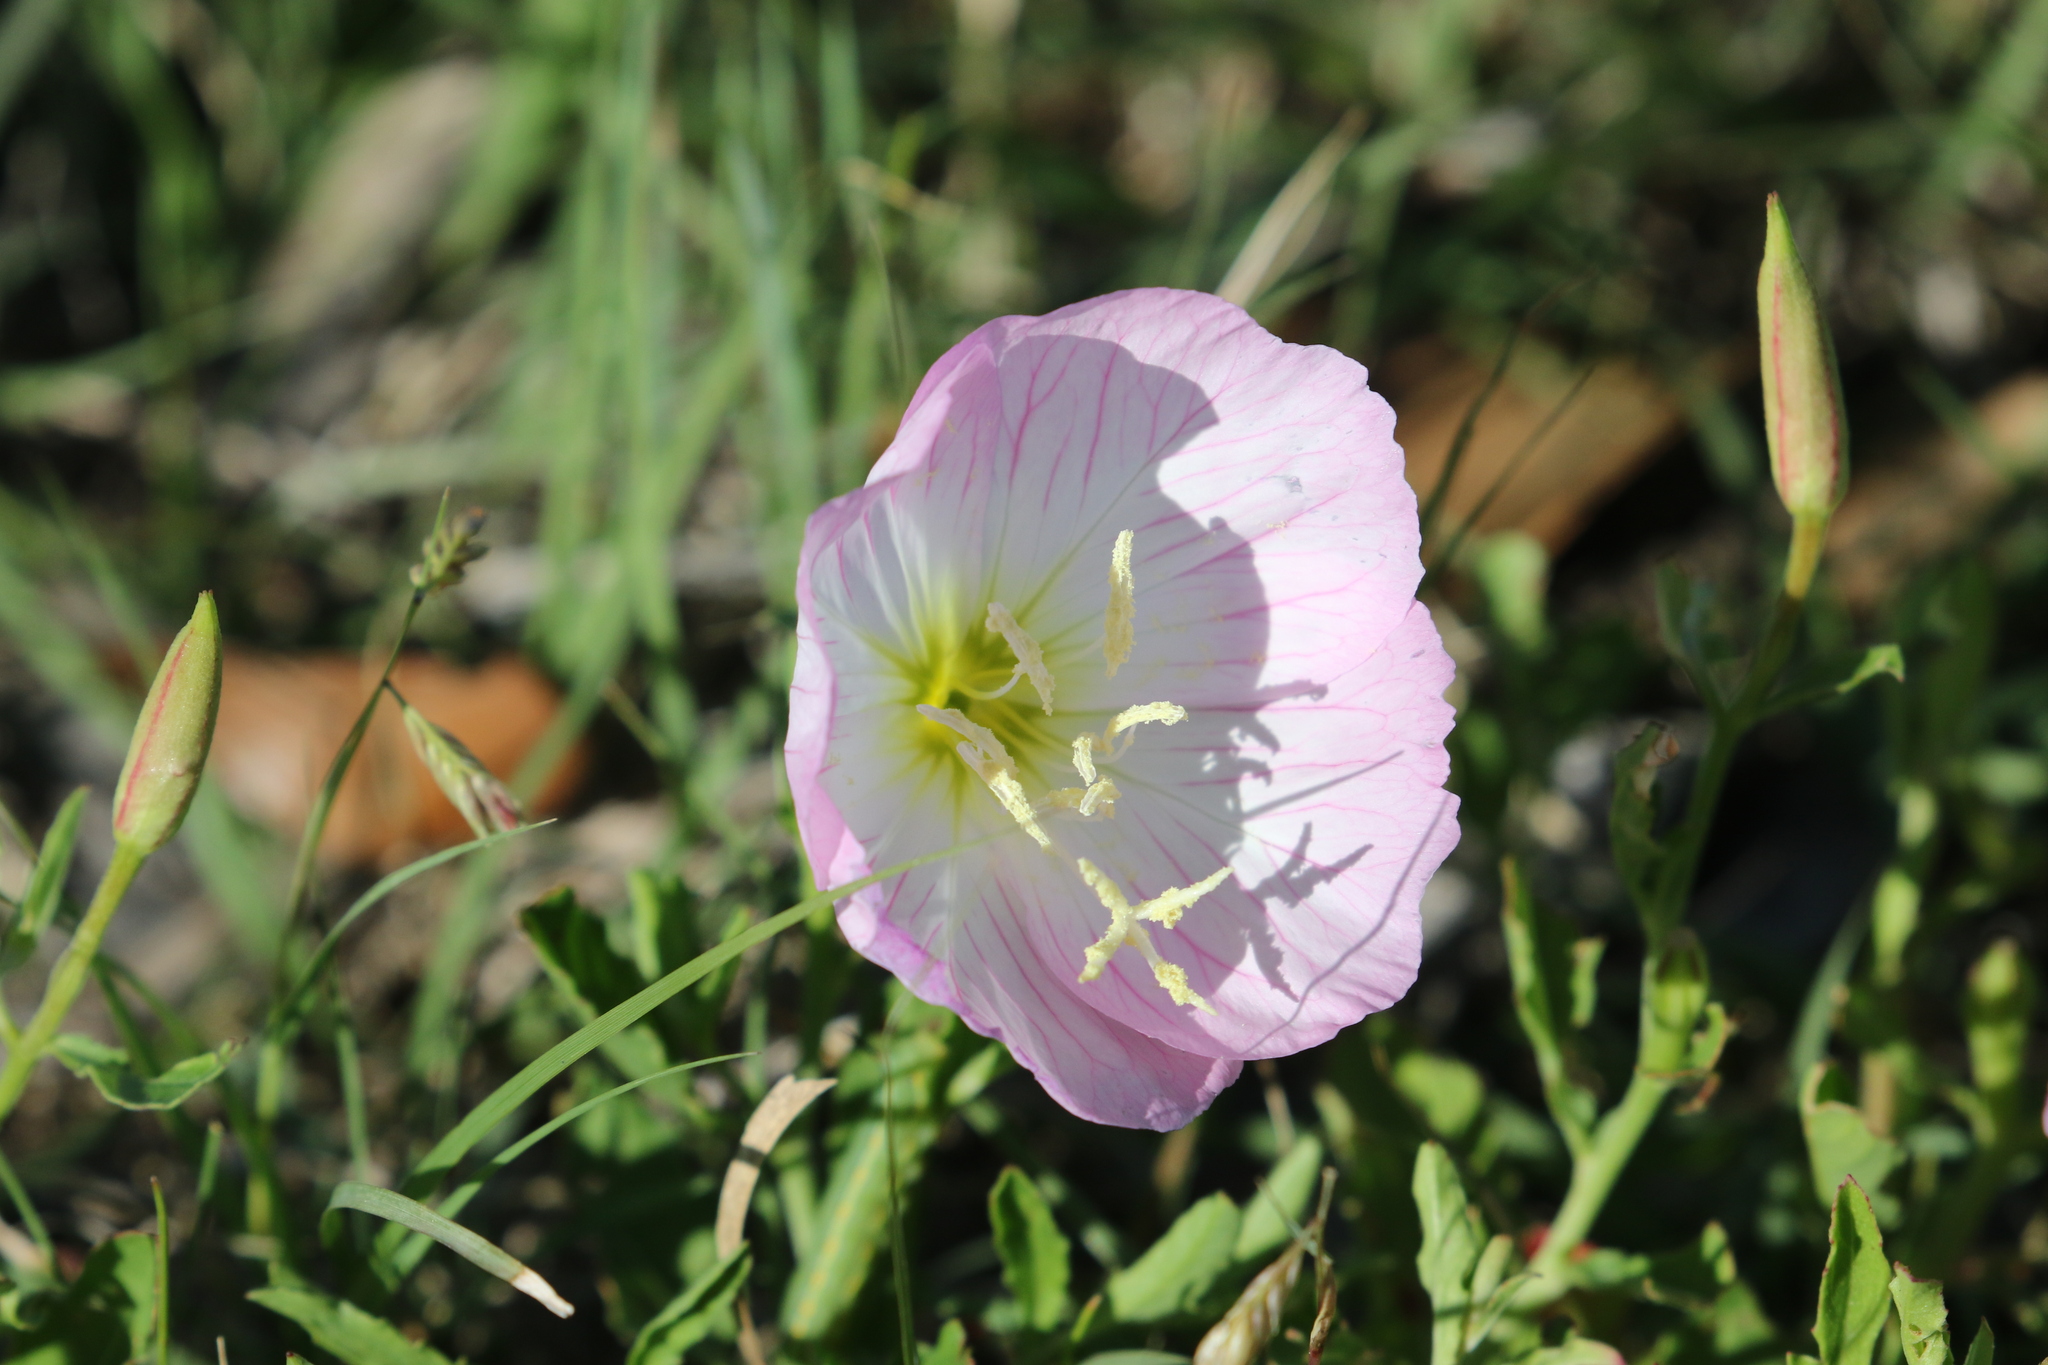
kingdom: Plantae
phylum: Tracheophyta
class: Magnoliopsida
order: Myrtales
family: Onagraceae
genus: Oenothera
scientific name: Oenothera speciosa
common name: White evening-primrose
